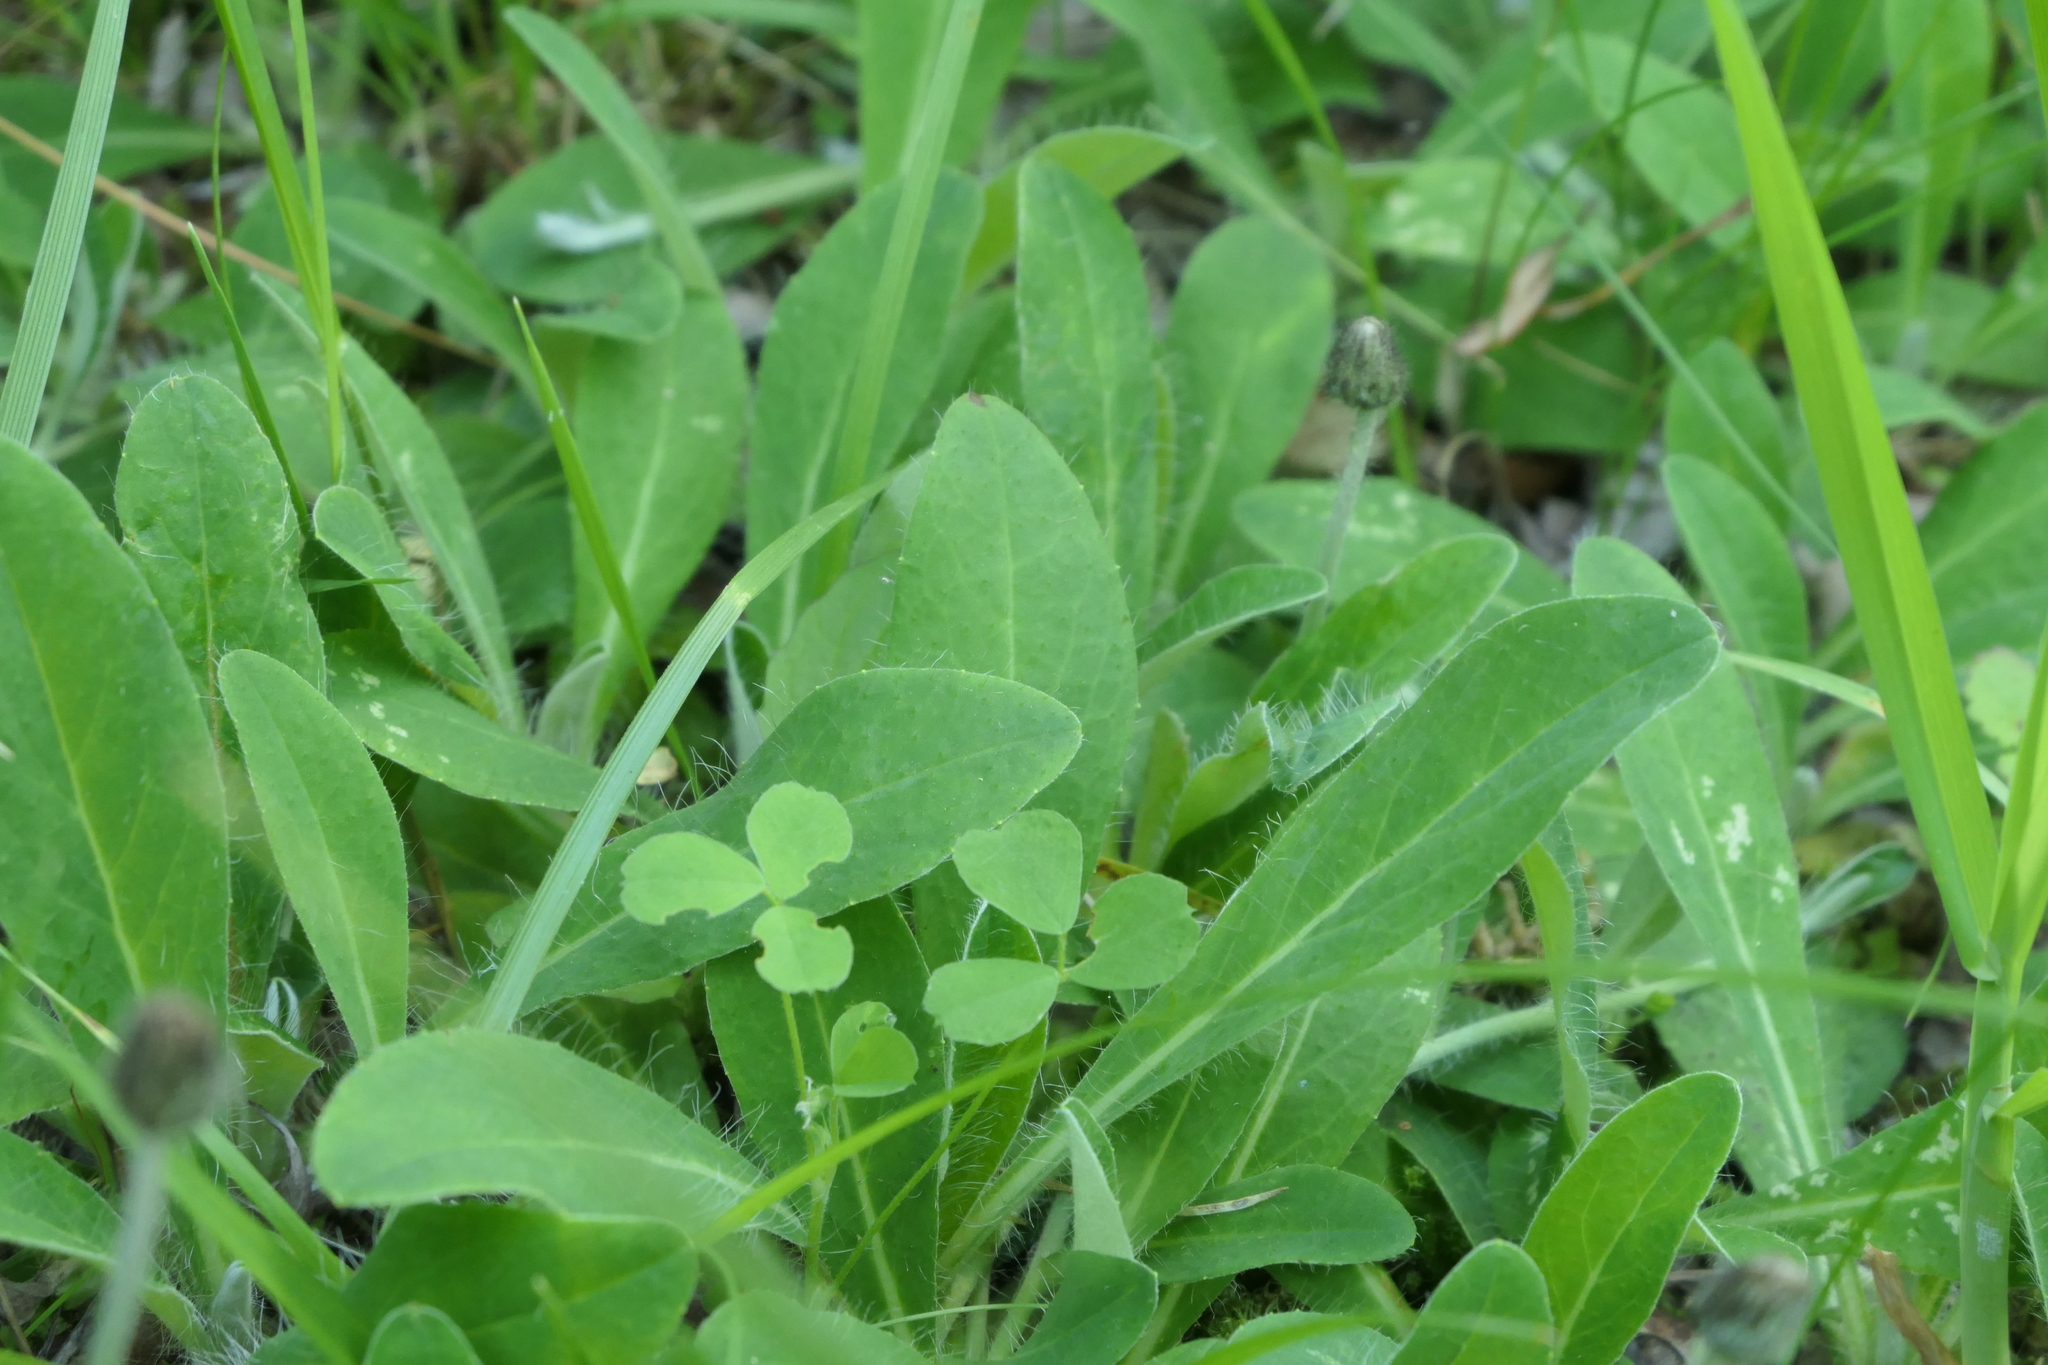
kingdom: Plantae
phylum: Tracheophyta
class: Magnoliopsida
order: Asterales
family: Asteraceae
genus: Pilosella
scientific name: Pilosella officinarum
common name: Mouse-ear hawkweed
